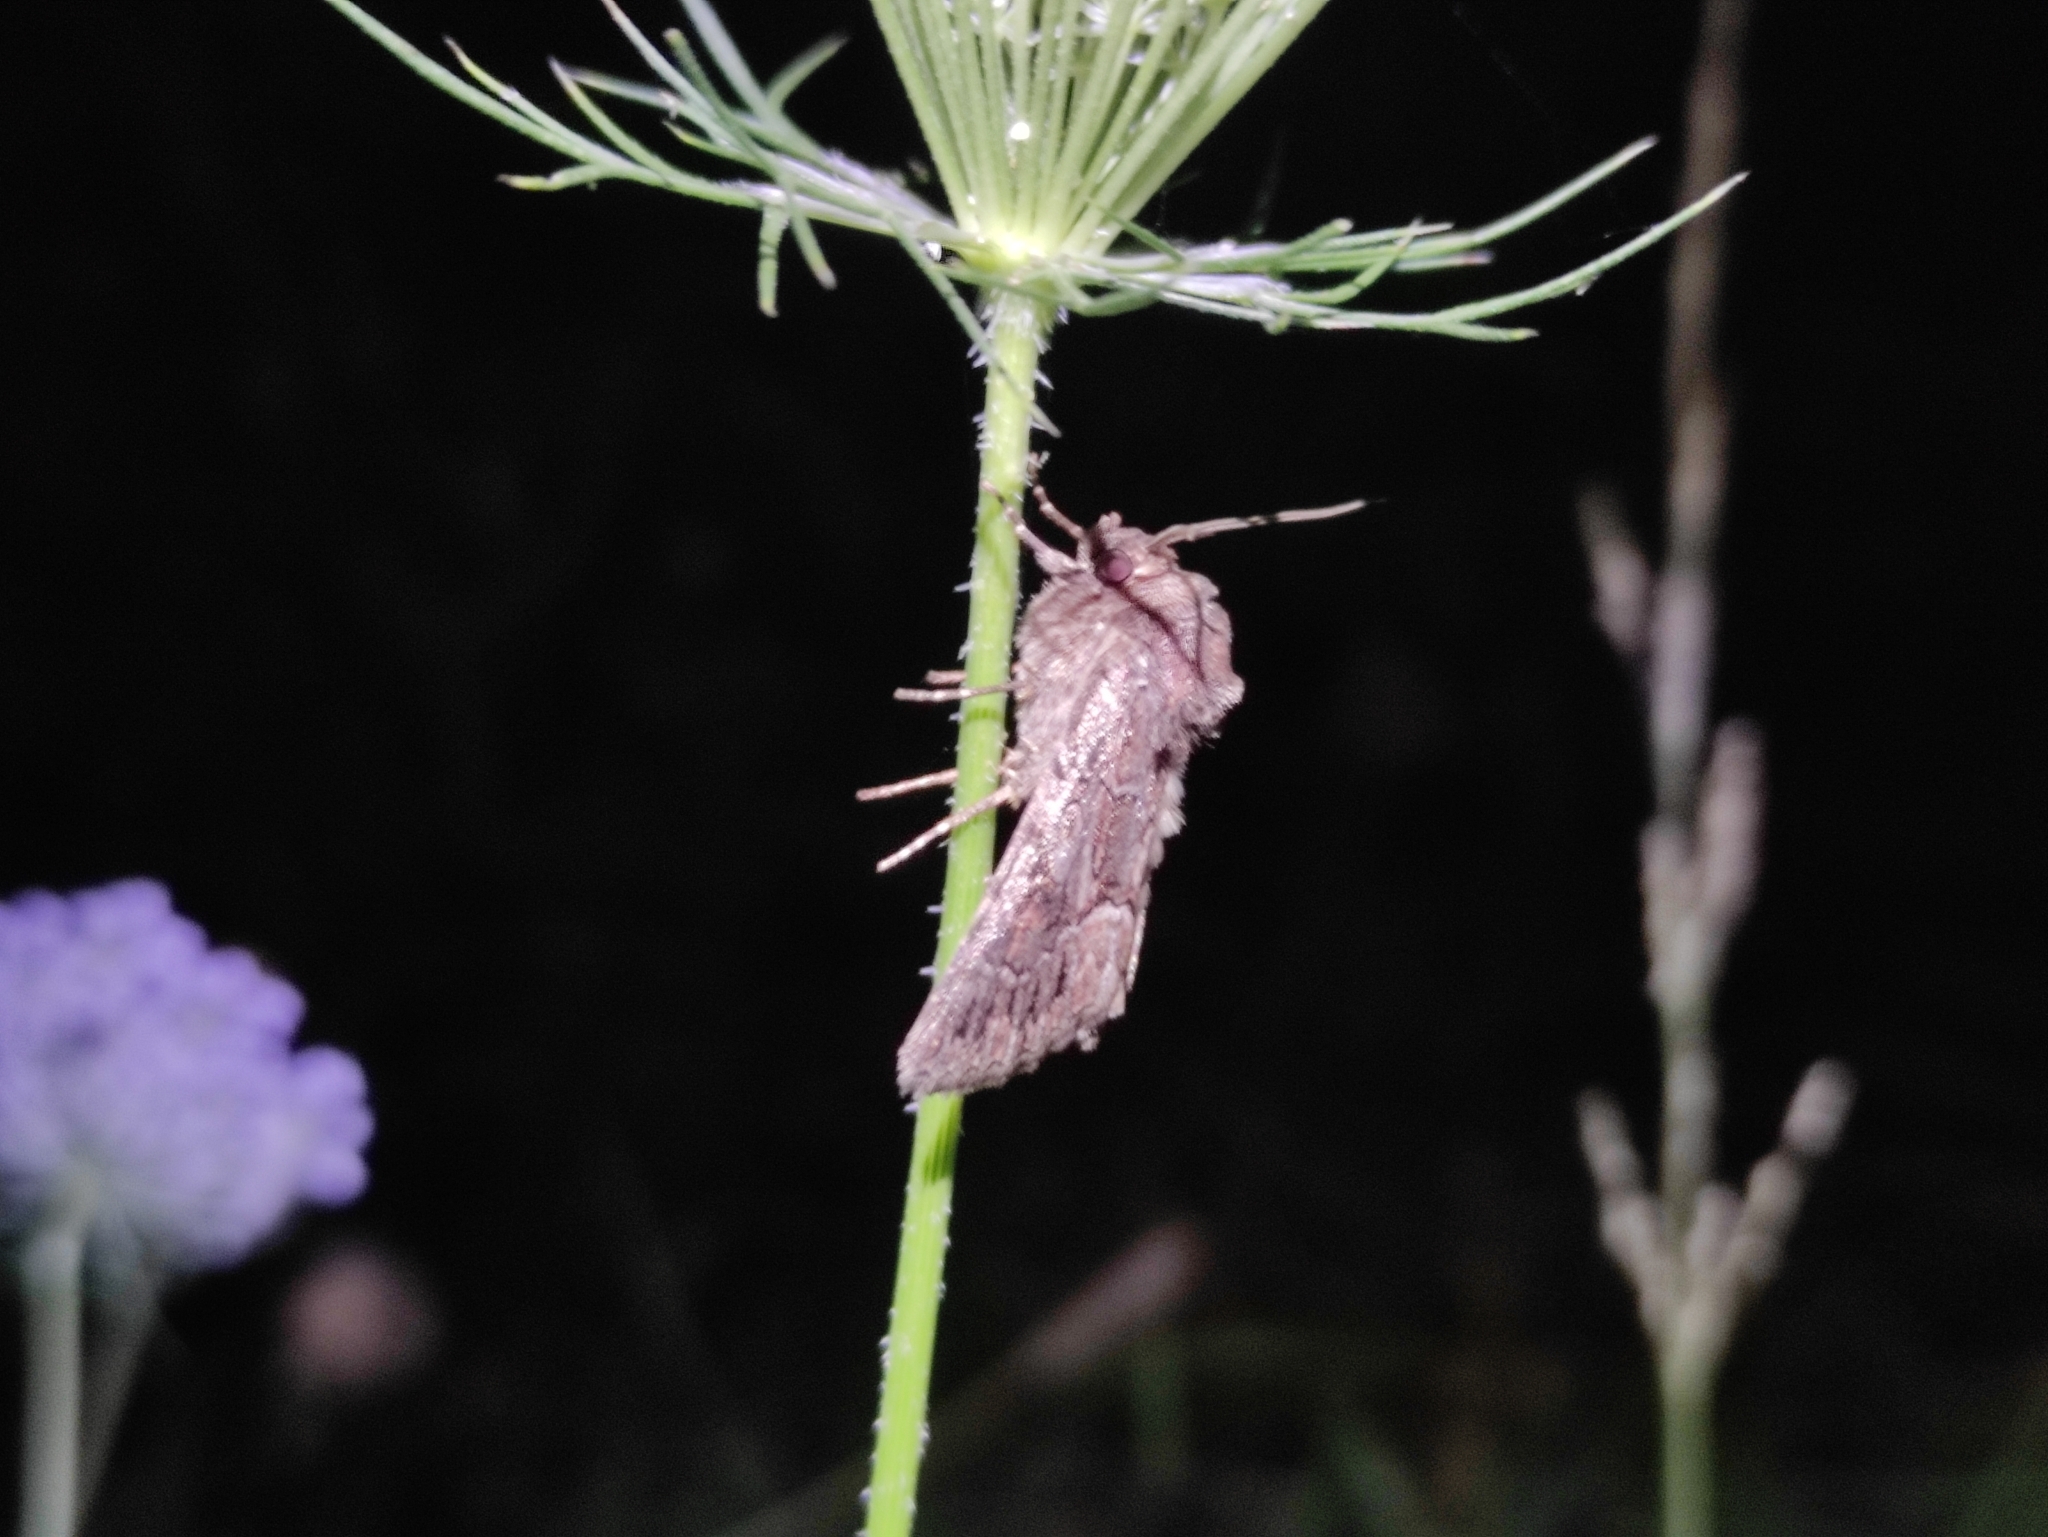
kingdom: Animalia
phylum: Arthropoda
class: Insecta
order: Lepidoptera
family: Noctuidae
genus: Thalpophila
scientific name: Thalpophila matura
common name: Straw underwing
